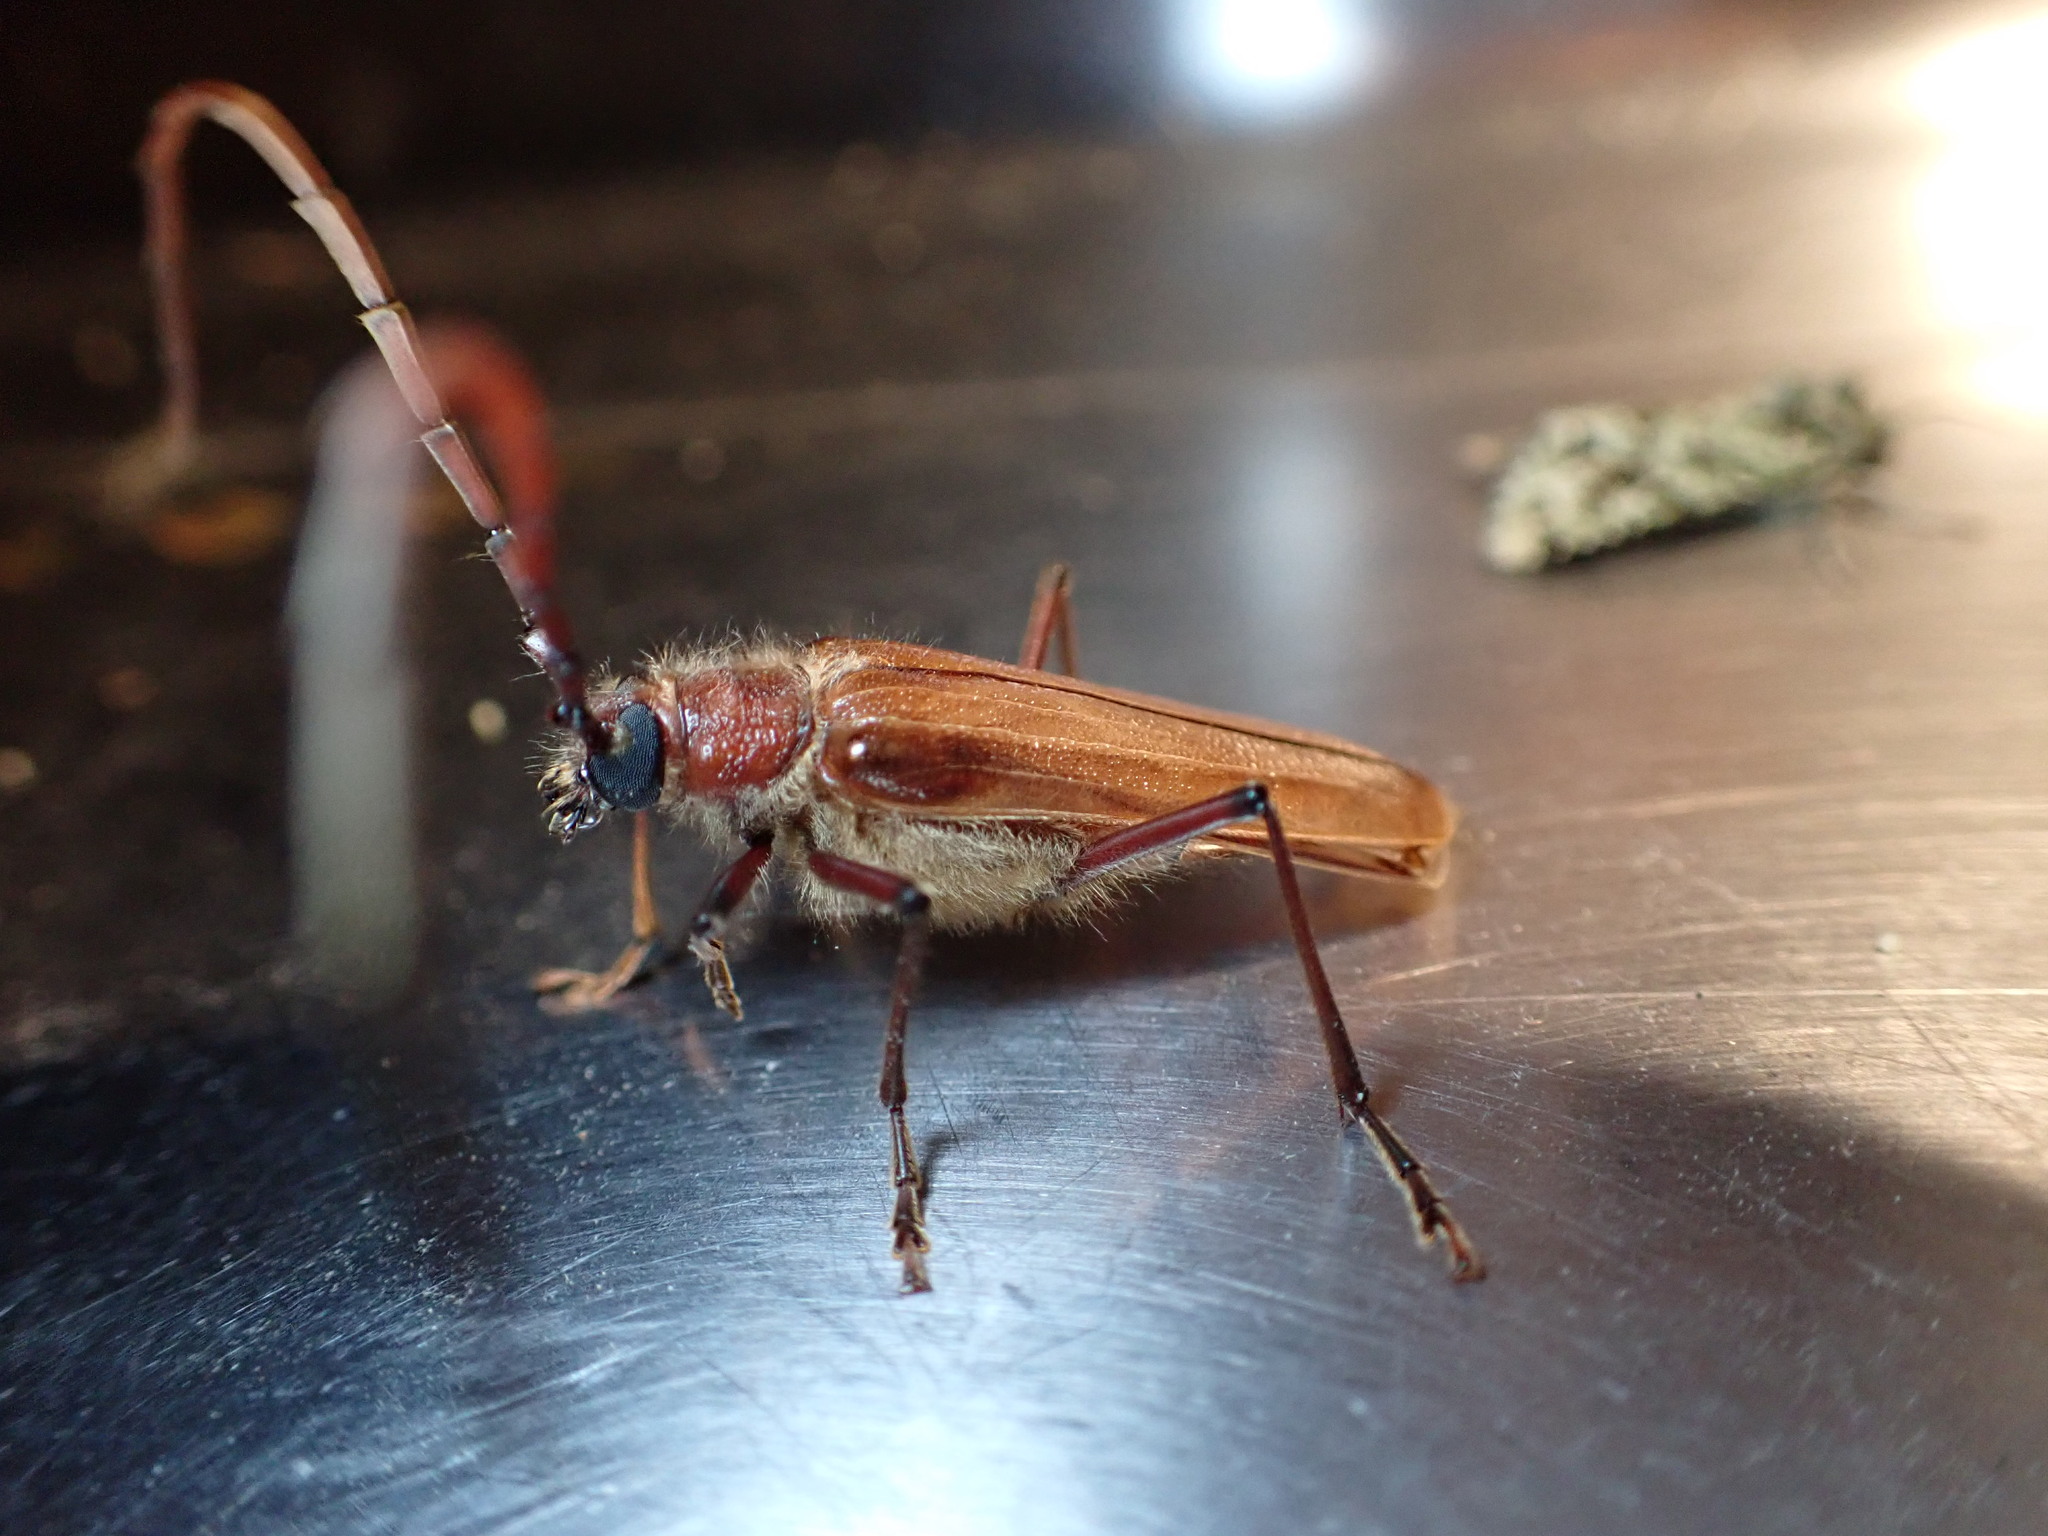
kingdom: Animalia
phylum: Arthropoda
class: Insecta
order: Coleoptera
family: Cerambycidae
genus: Ochrocydus
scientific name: Ochrocydus huttoni
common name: Kanuka longhorn
